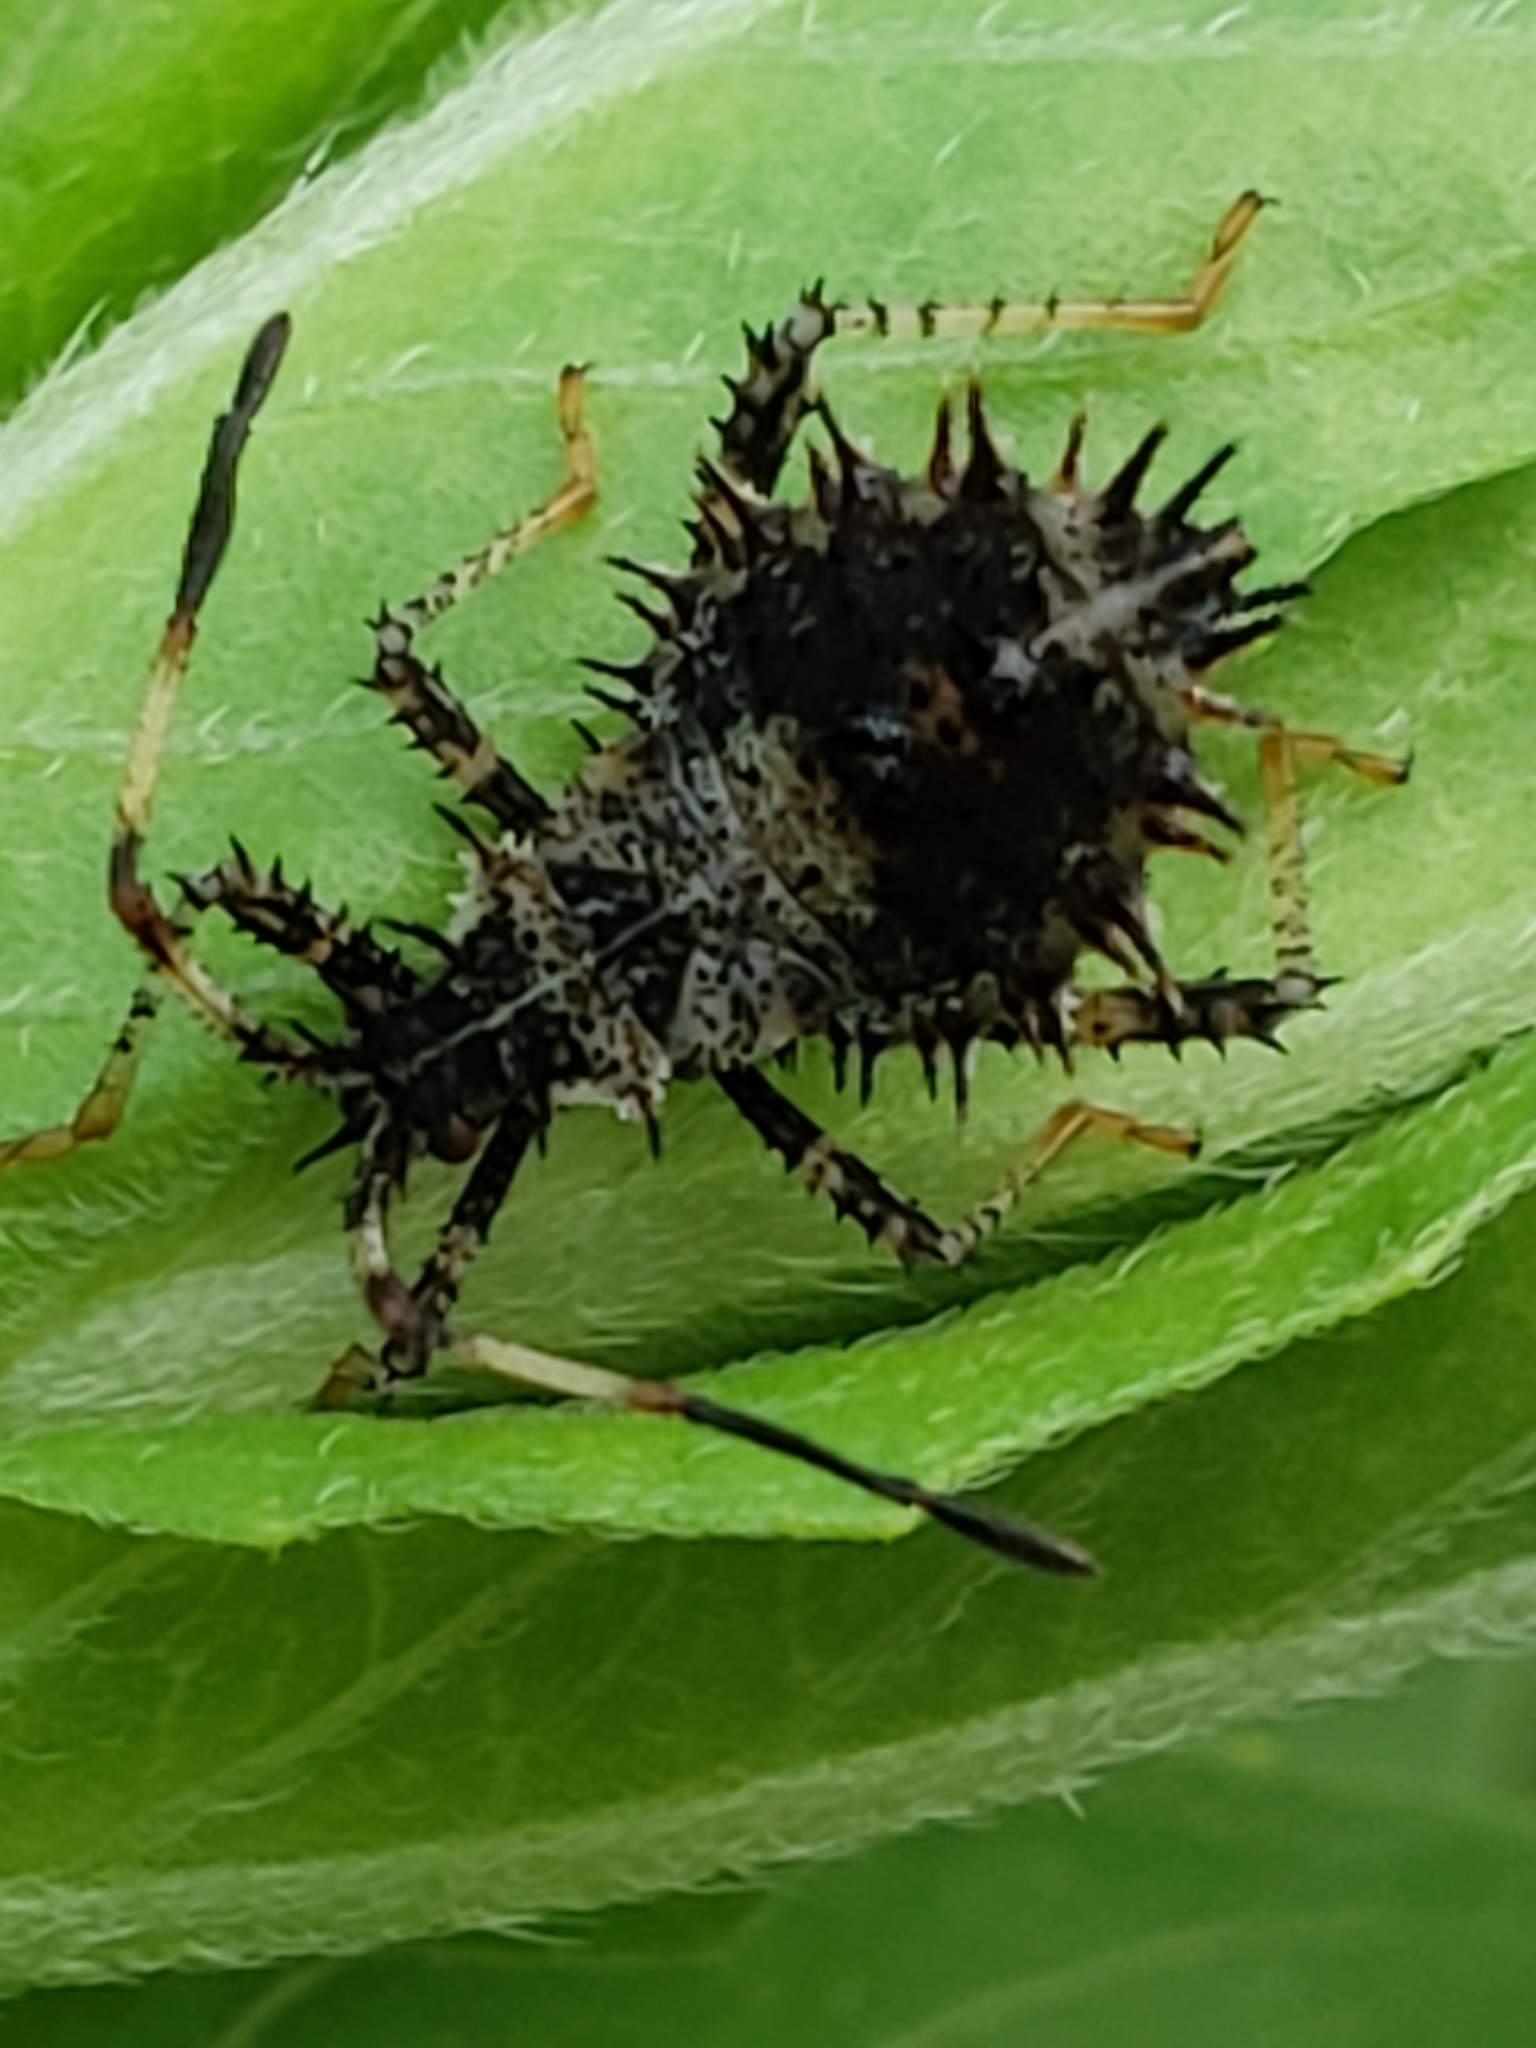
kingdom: Animalia
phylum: Arthropoda
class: Insecta
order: Hemiptera
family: Coreidae
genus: Euthochtha
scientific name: Euthochtha galeator
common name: Helmeted squash bug
